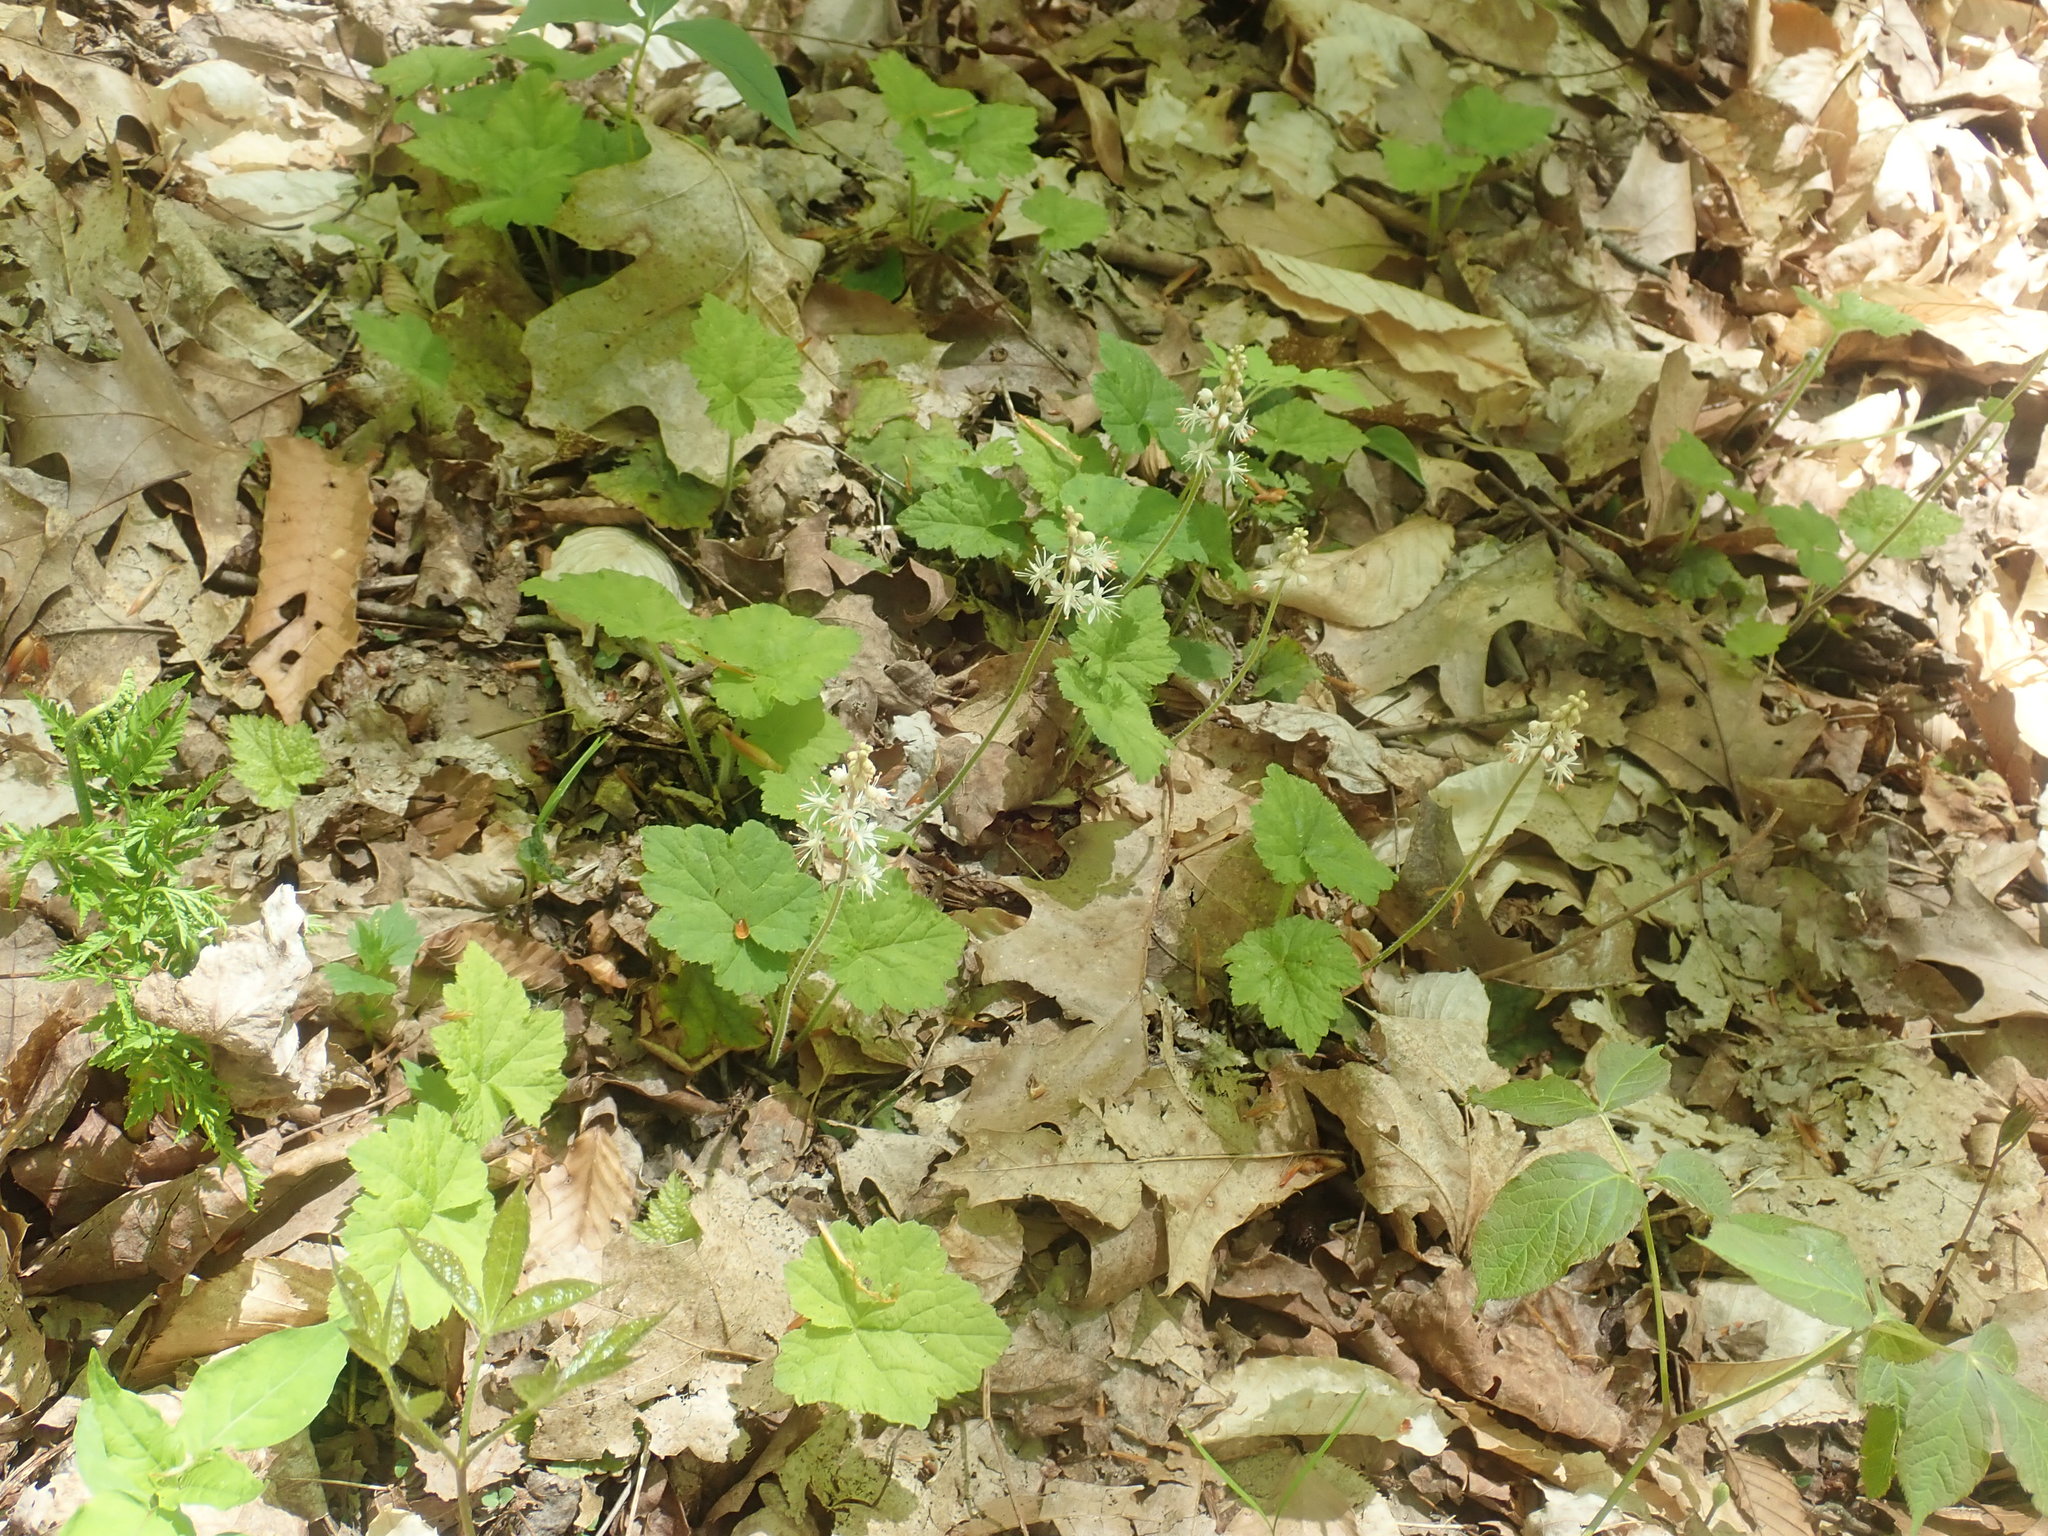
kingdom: Plantae
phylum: Tracheophyta
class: Magnoliopsida
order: Saxifragales
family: Saxifragaceae
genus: Tiarella
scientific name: Tiarella stolonifera
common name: Stoloniferous foamflower
